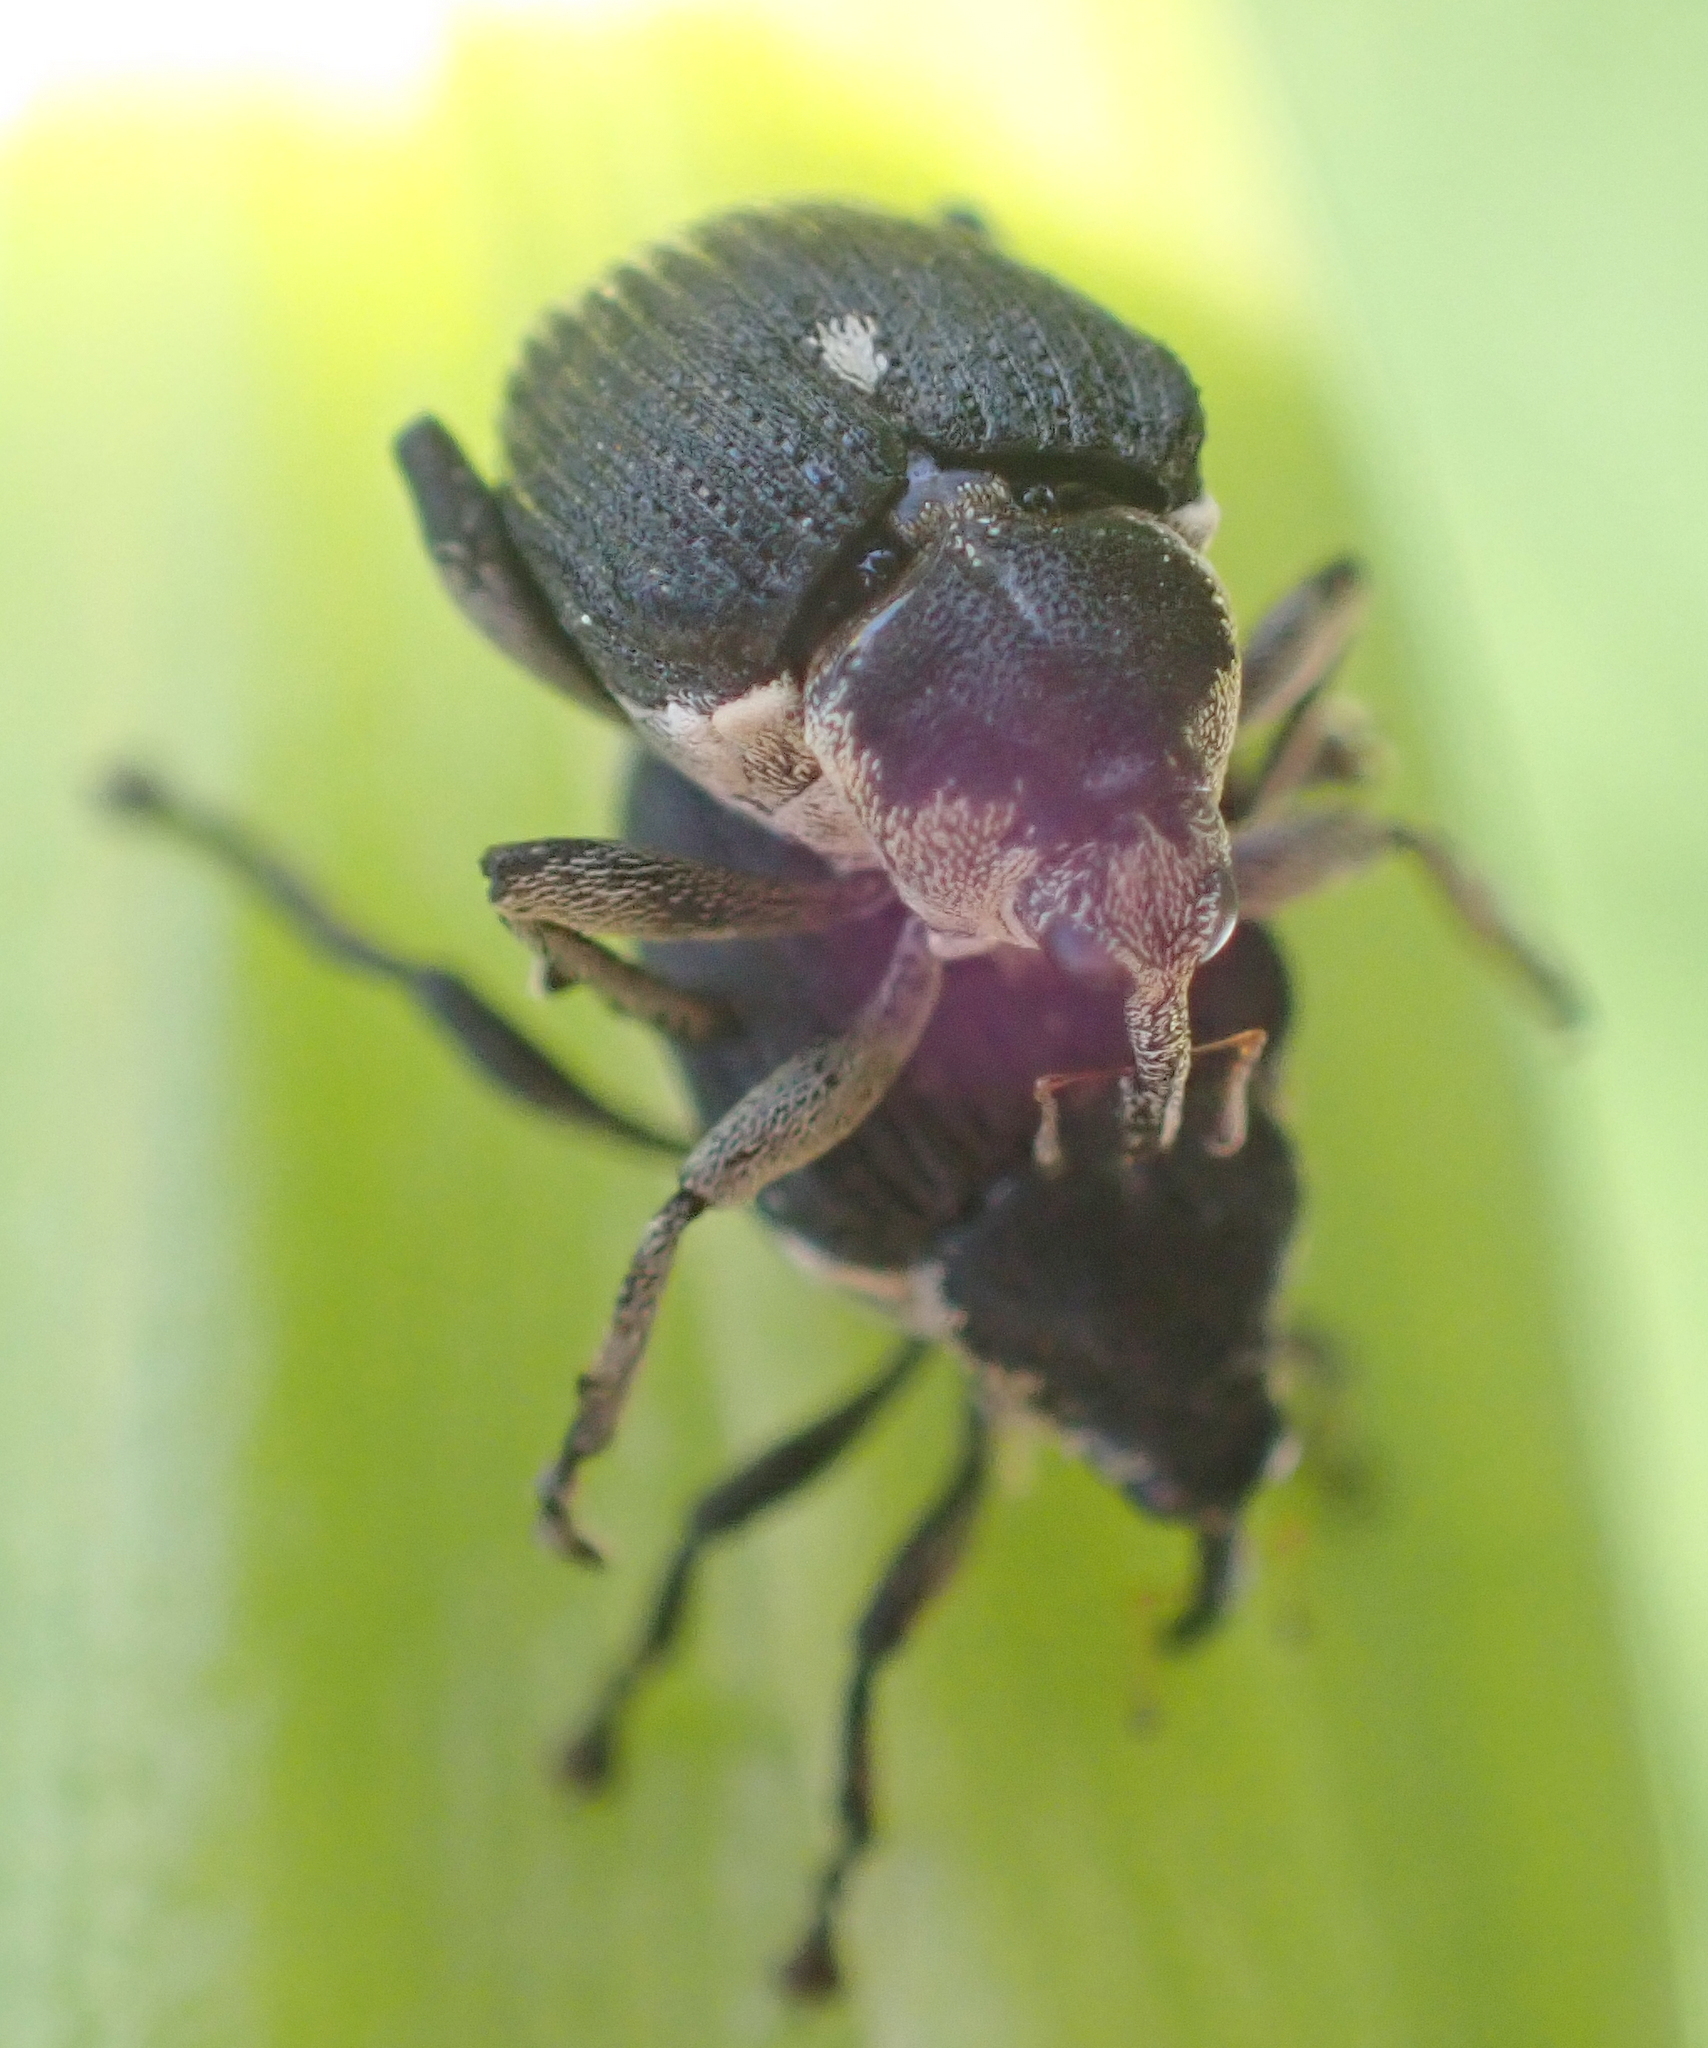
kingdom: Animalia
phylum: Arthropoda
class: Insecta
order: Coleoptera
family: Curculionidae
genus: Mononychus
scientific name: Mononychus punctumalbum
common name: Iris weevil
